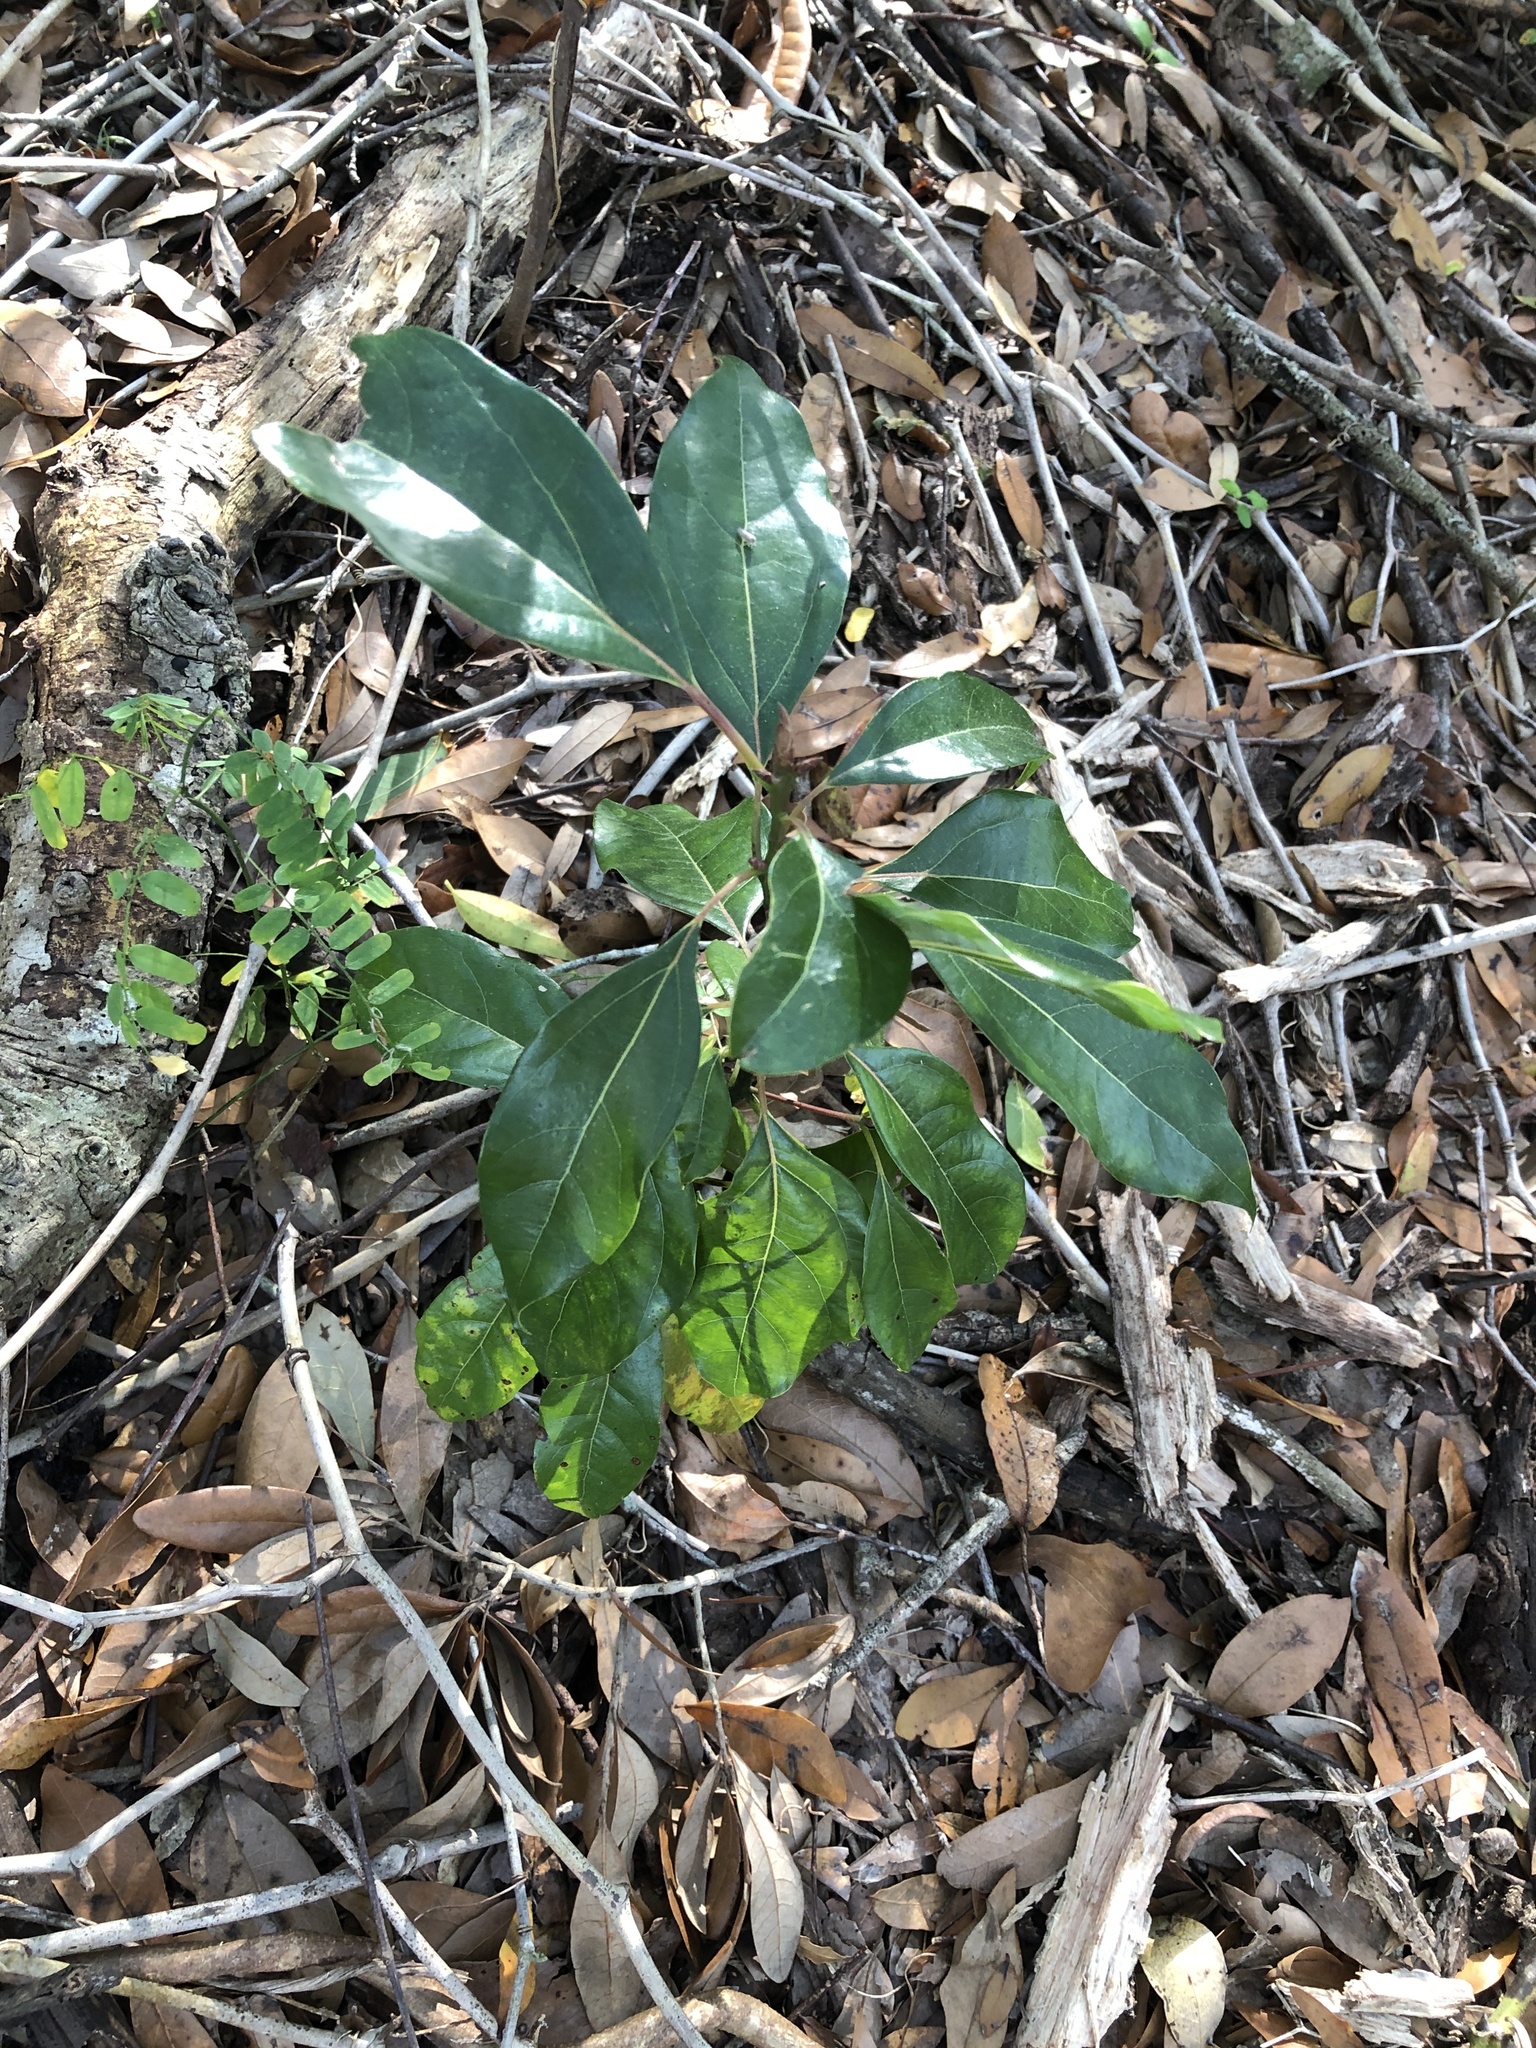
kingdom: Plantae
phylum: Tracheophyta
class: Magnoliopsida
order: Laurales
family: Lauraceae
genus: Cinnamomum
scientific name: Cinnamomum camphora
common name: Camphortree
